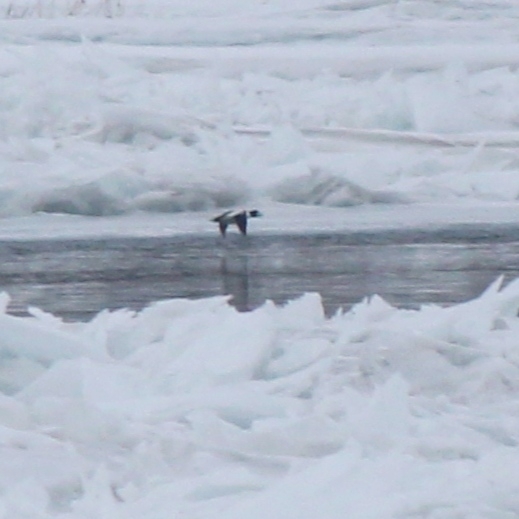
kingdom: Animalia
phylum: Chordata
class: Aves
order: Anseriformes
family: Anatidae
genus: Bucephala
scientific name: Bucephala clangula
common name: Common goldeneye
